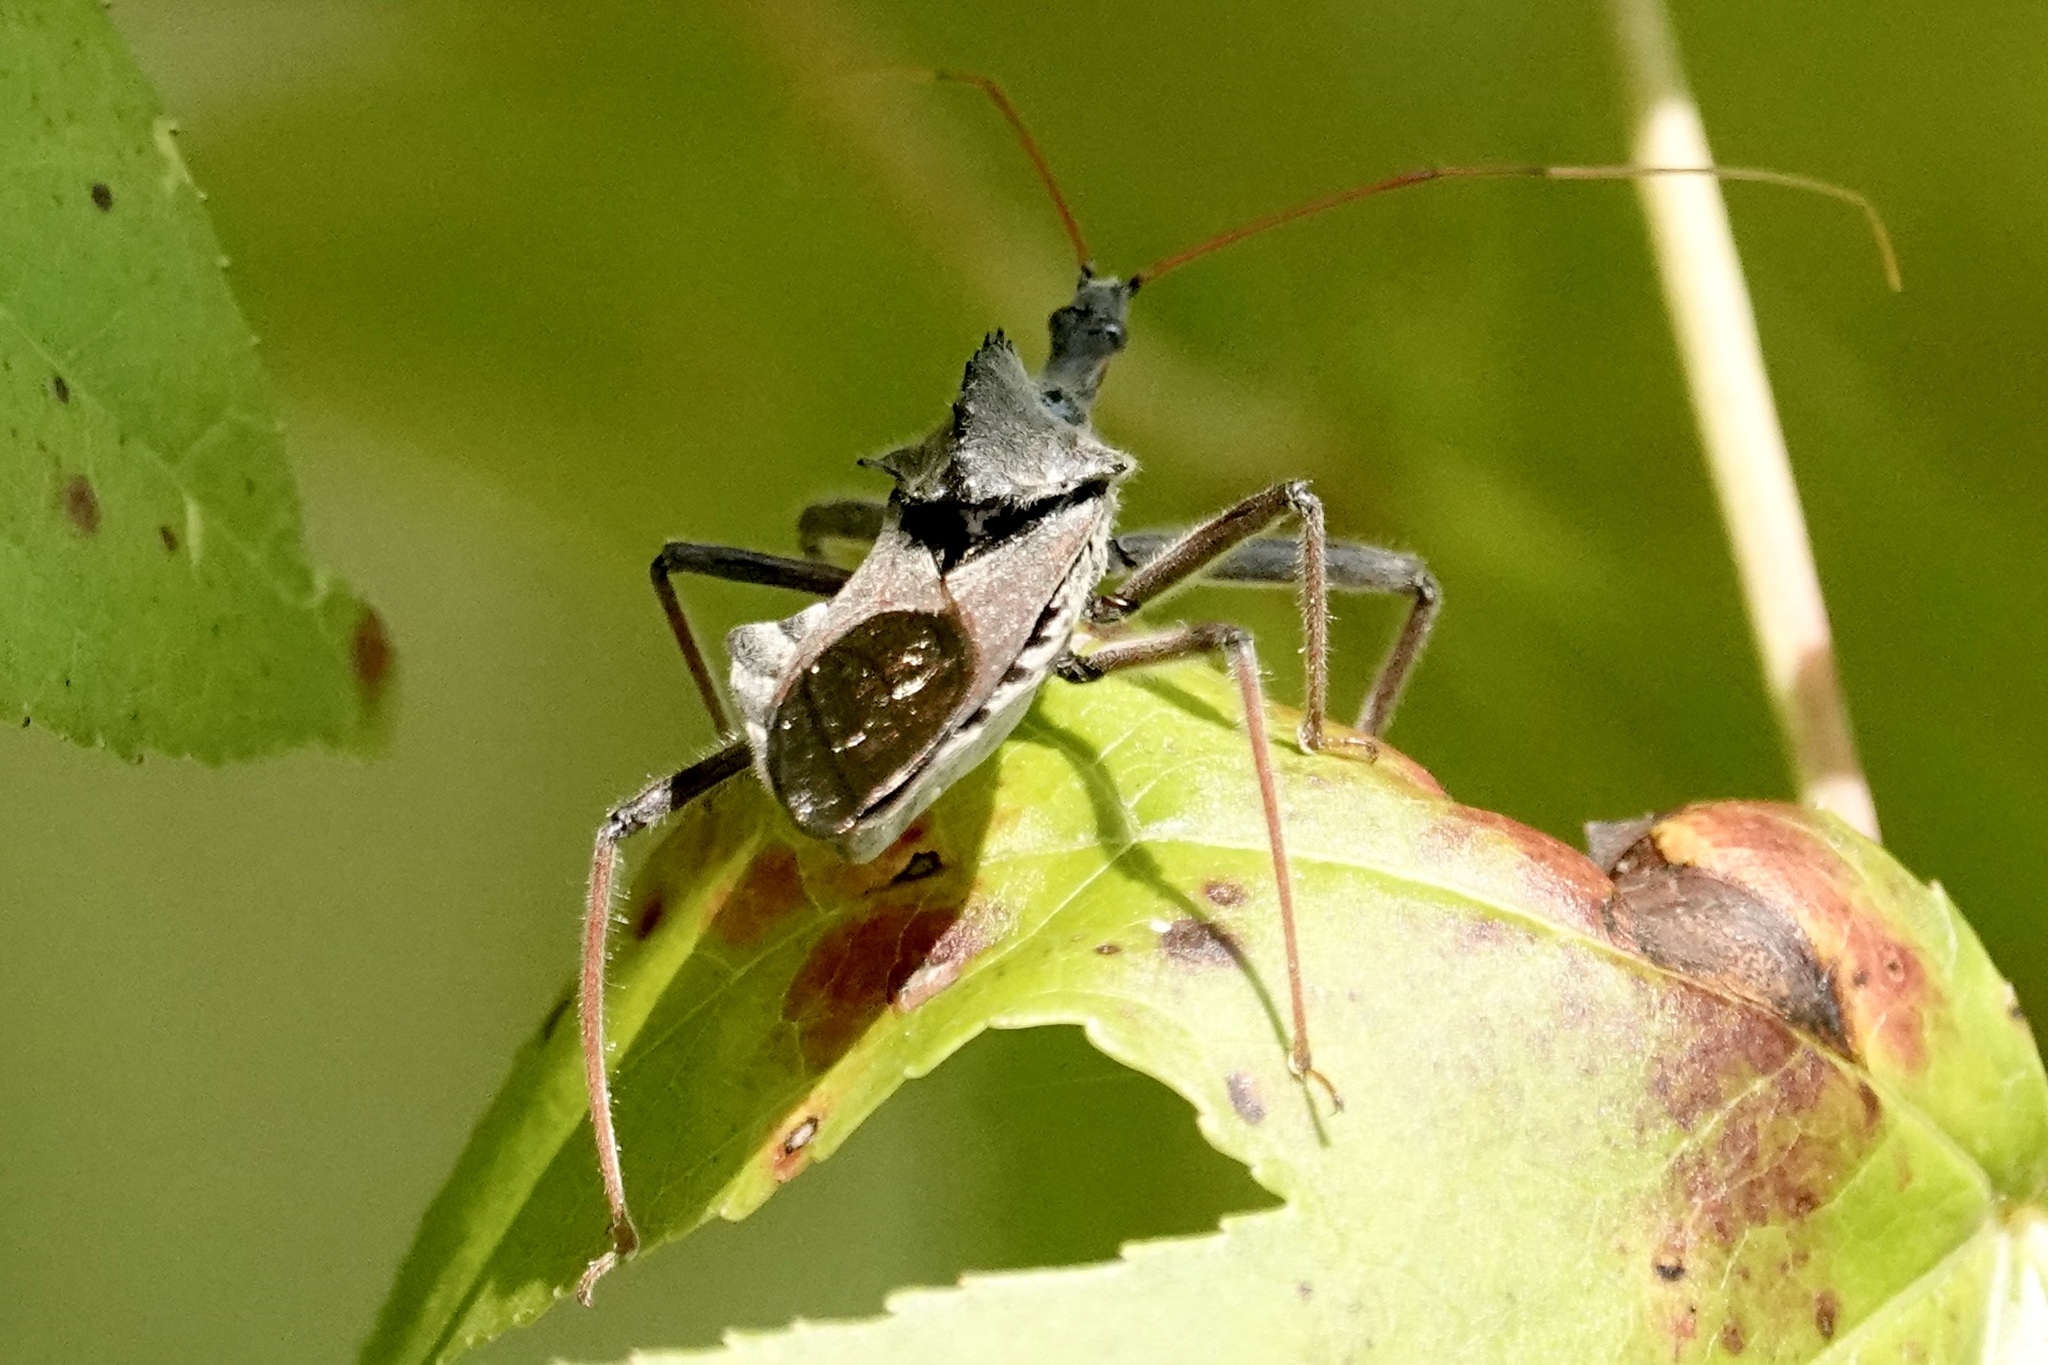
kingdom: Animalia
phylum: Arthropoda
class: Insecta
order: Hemiptera
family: Reduviidae
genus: Arilus
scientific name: Arilus cristatus
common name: North american wheel bug
